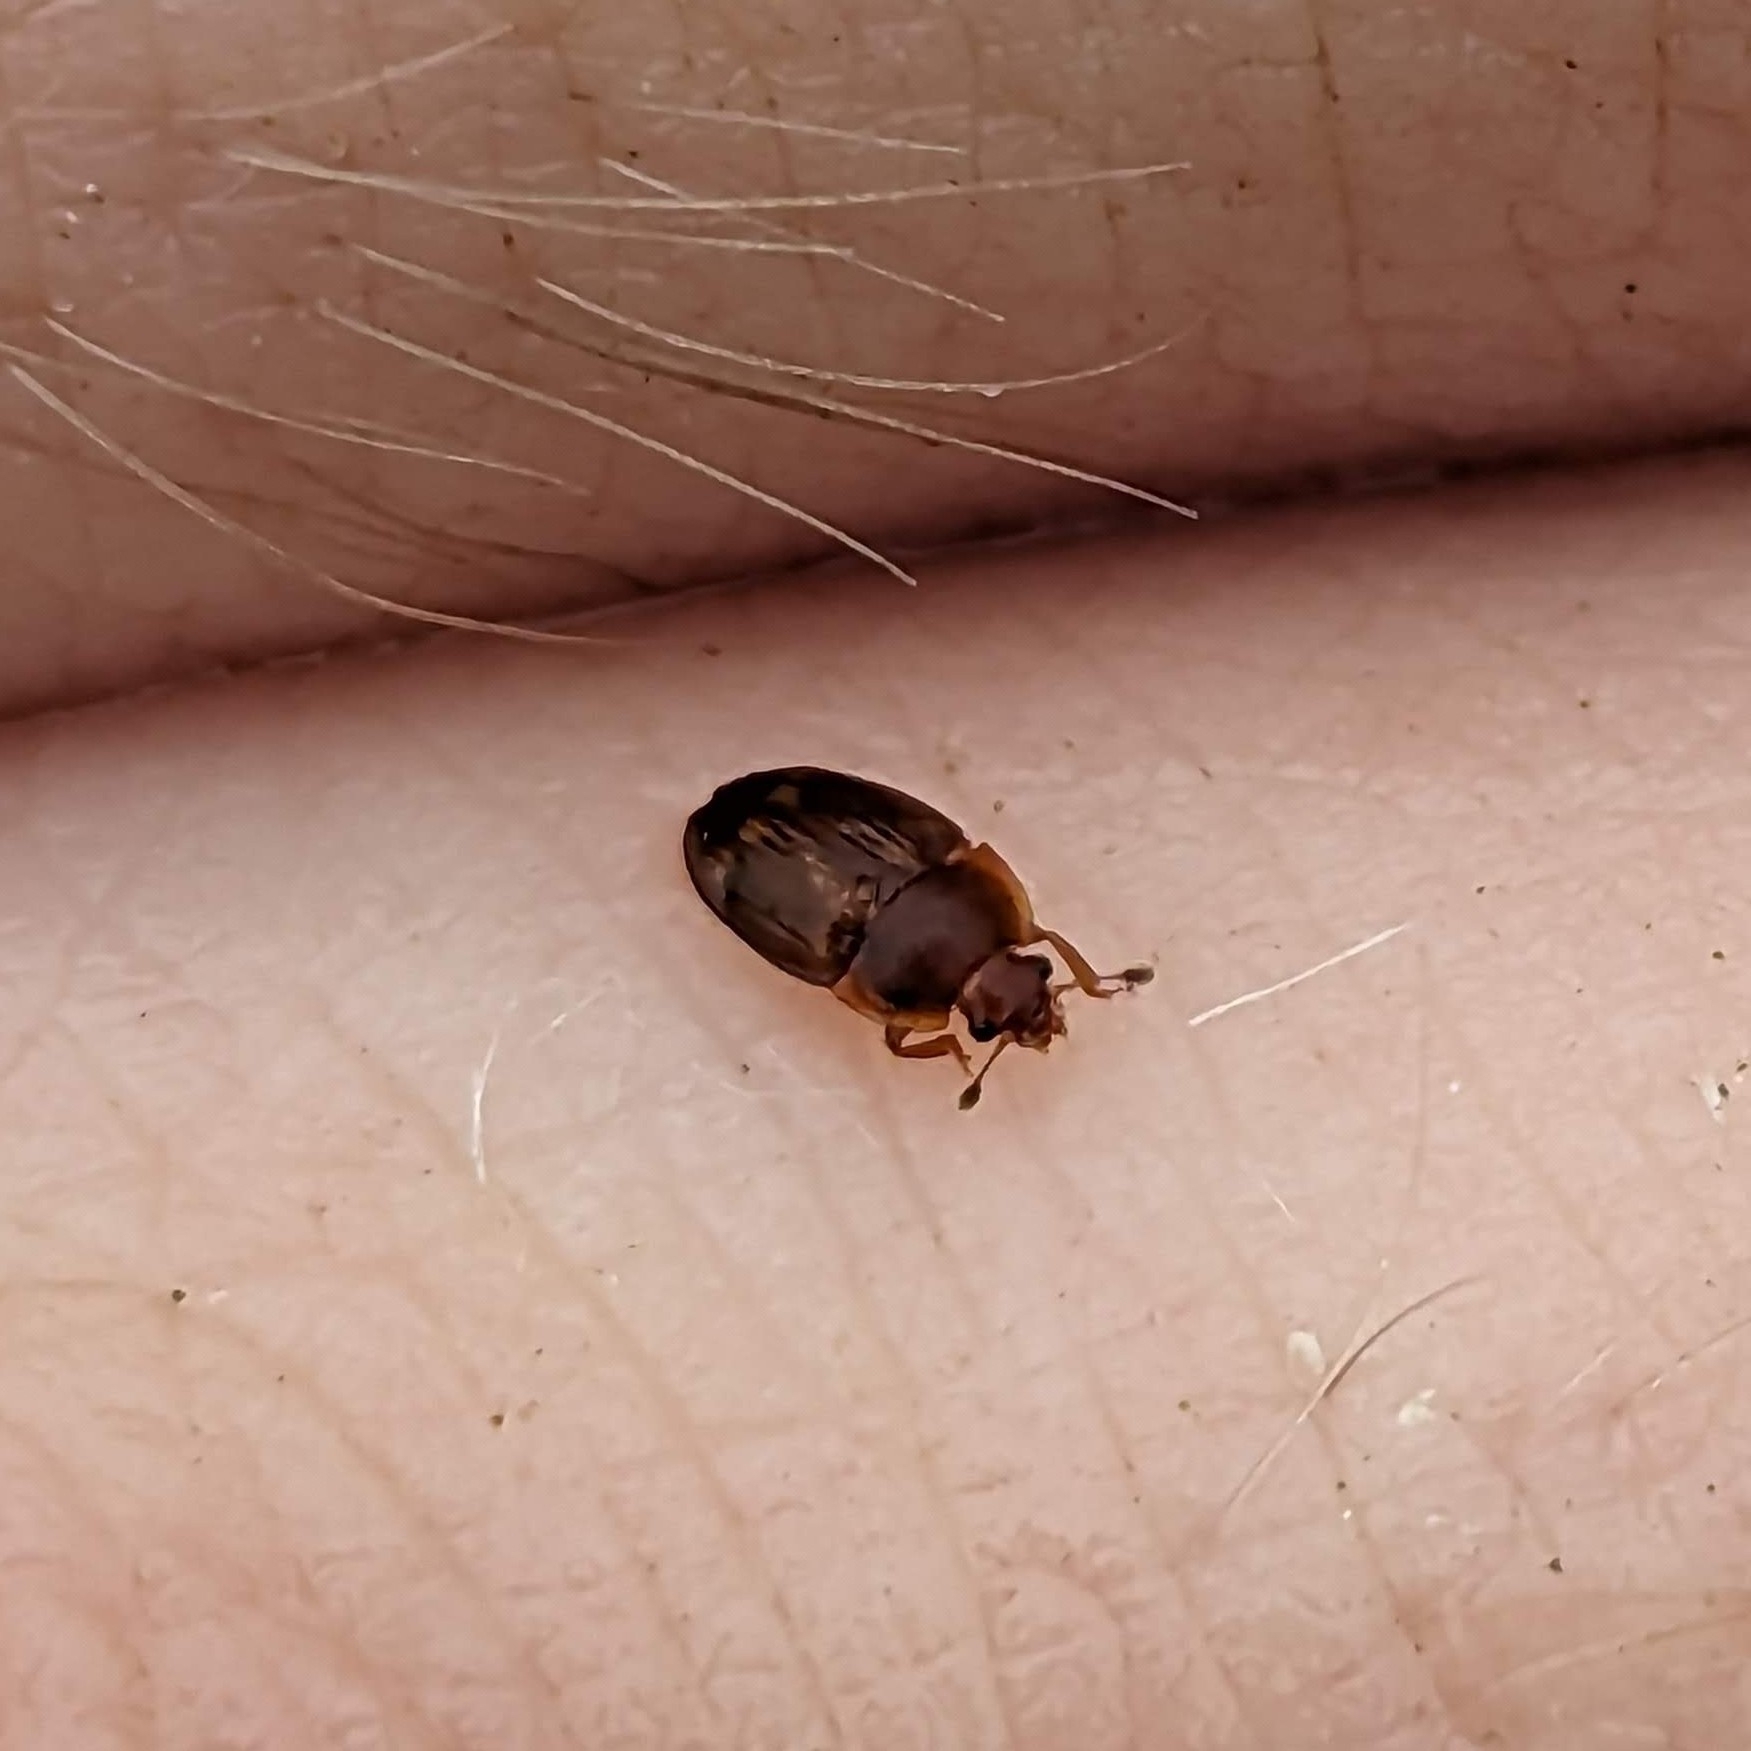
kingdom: Animalia
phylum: Arthropoda
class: Insecta
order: Coleoptera
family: Nitidulidae
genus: Stelidota
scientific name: Stelidota geminata
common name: Strawberry sap beetle
